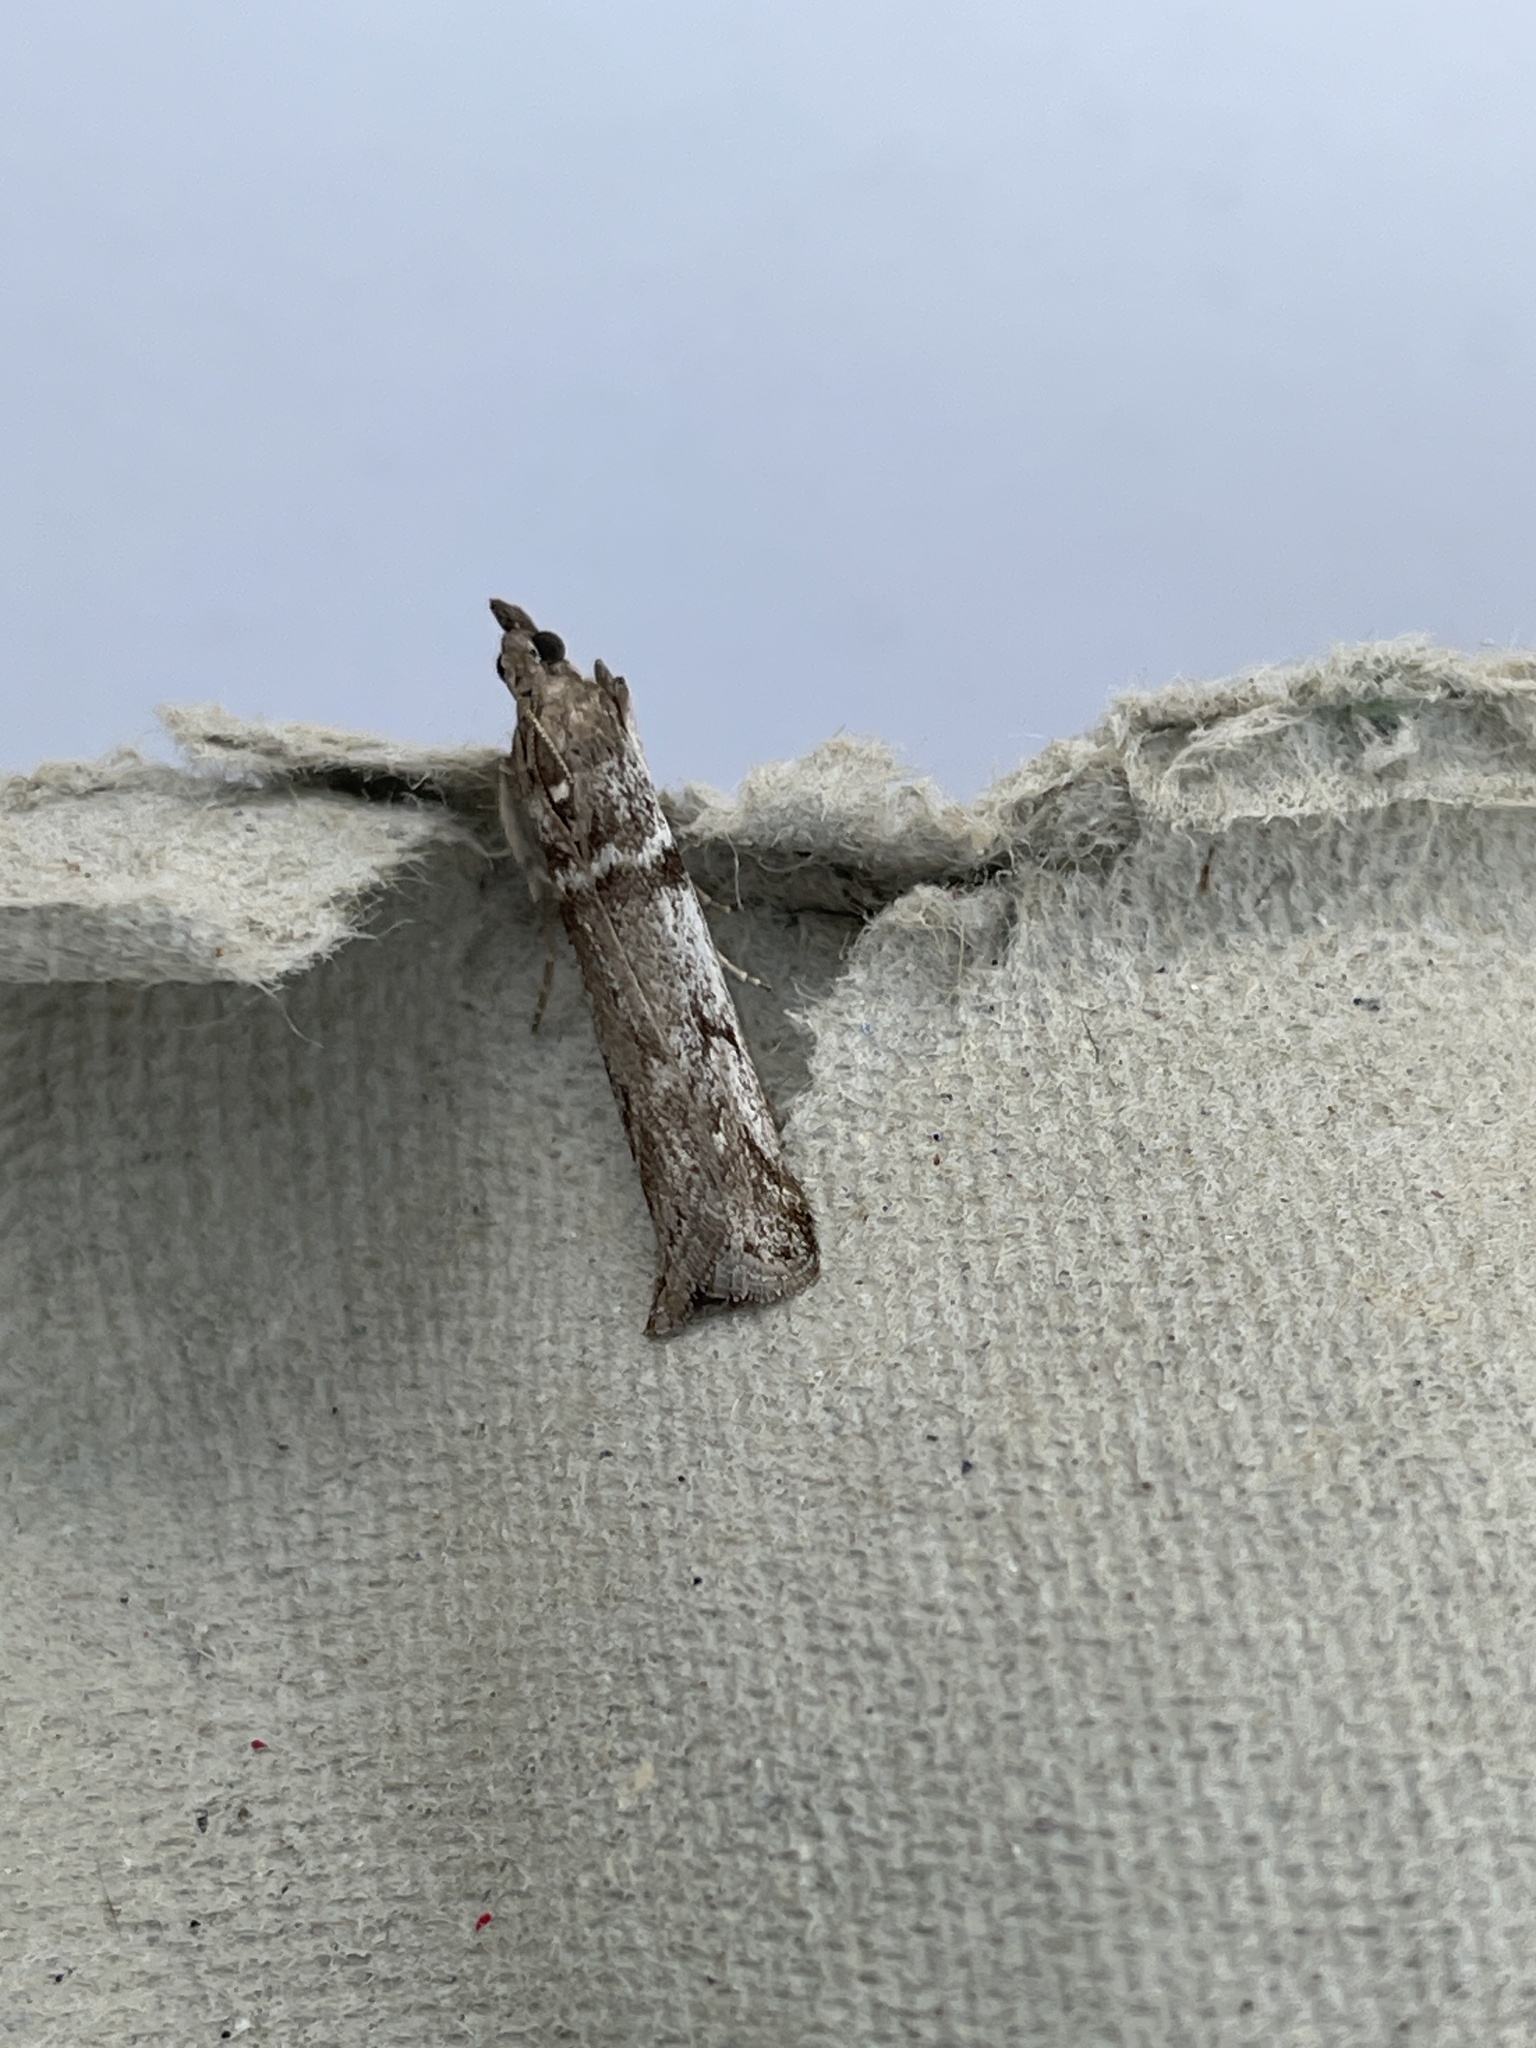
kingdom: Animalia
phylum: Arthropoda
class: Insecta
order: Lepidoptera
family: Pyralidae
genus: Zophodia
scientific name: Zophodia convolutella
